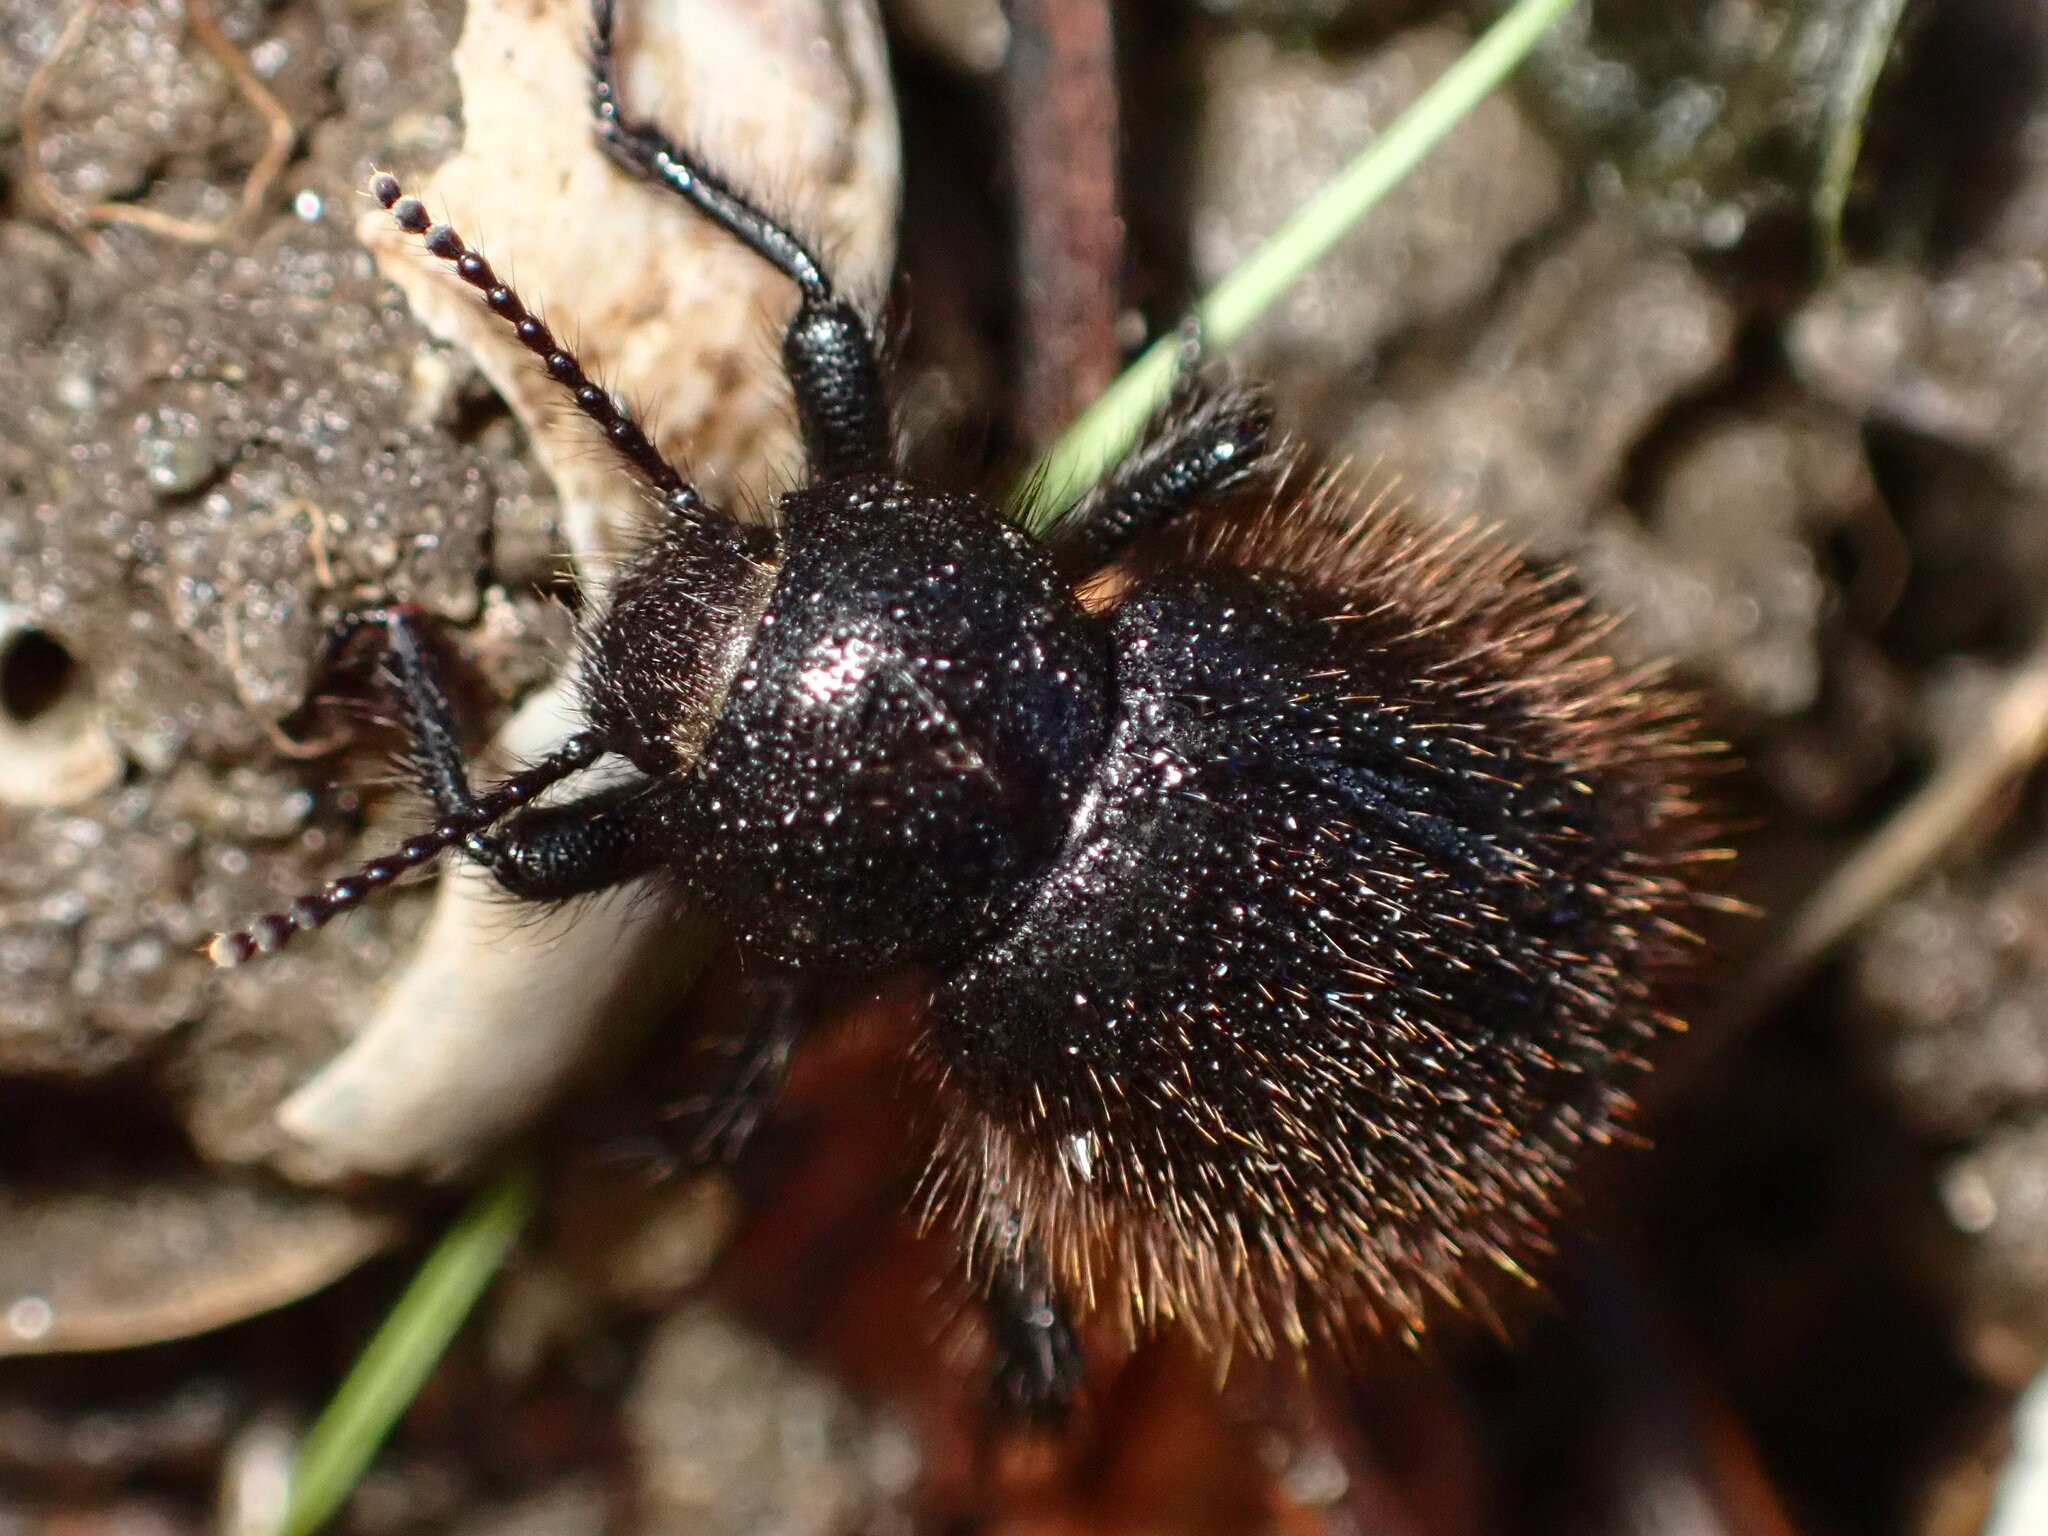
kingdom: Animalia
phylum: Arthropoda
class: Insecta
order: Coleoptera
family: Tenebrionidae
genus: Eleodes
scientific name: Eleodes osculans
